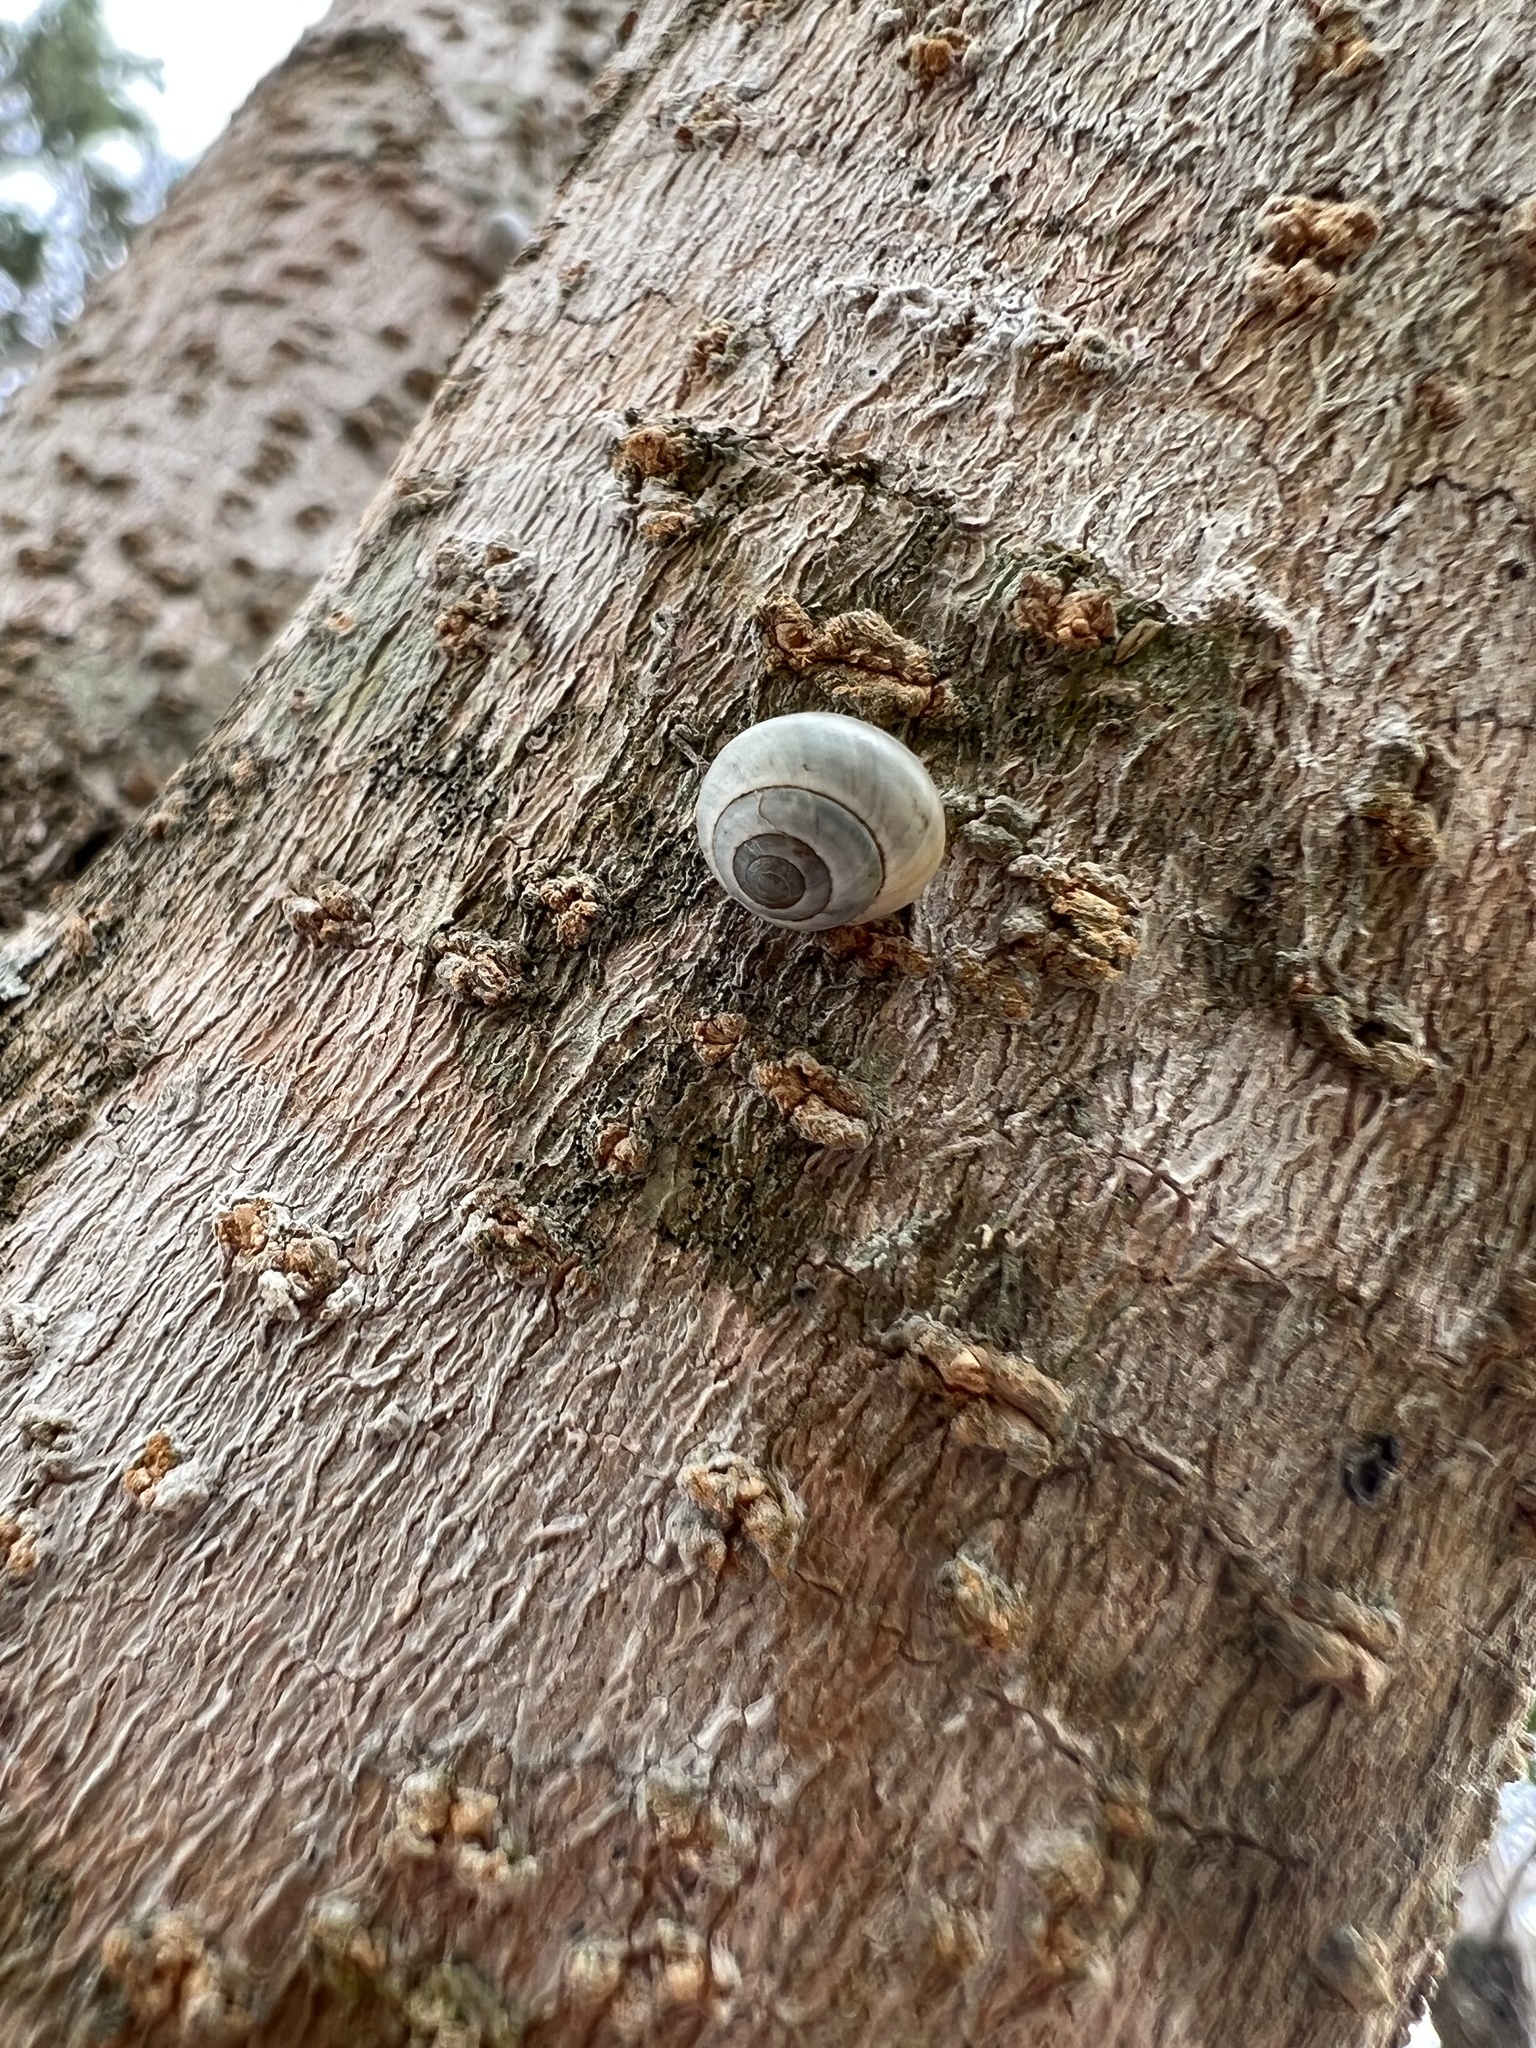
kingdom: Animalia
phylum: Mollusca
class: Gastropoda
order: Cycloneritida
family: Helicinidae
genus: Helicina
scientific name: Helicina orbiculata
